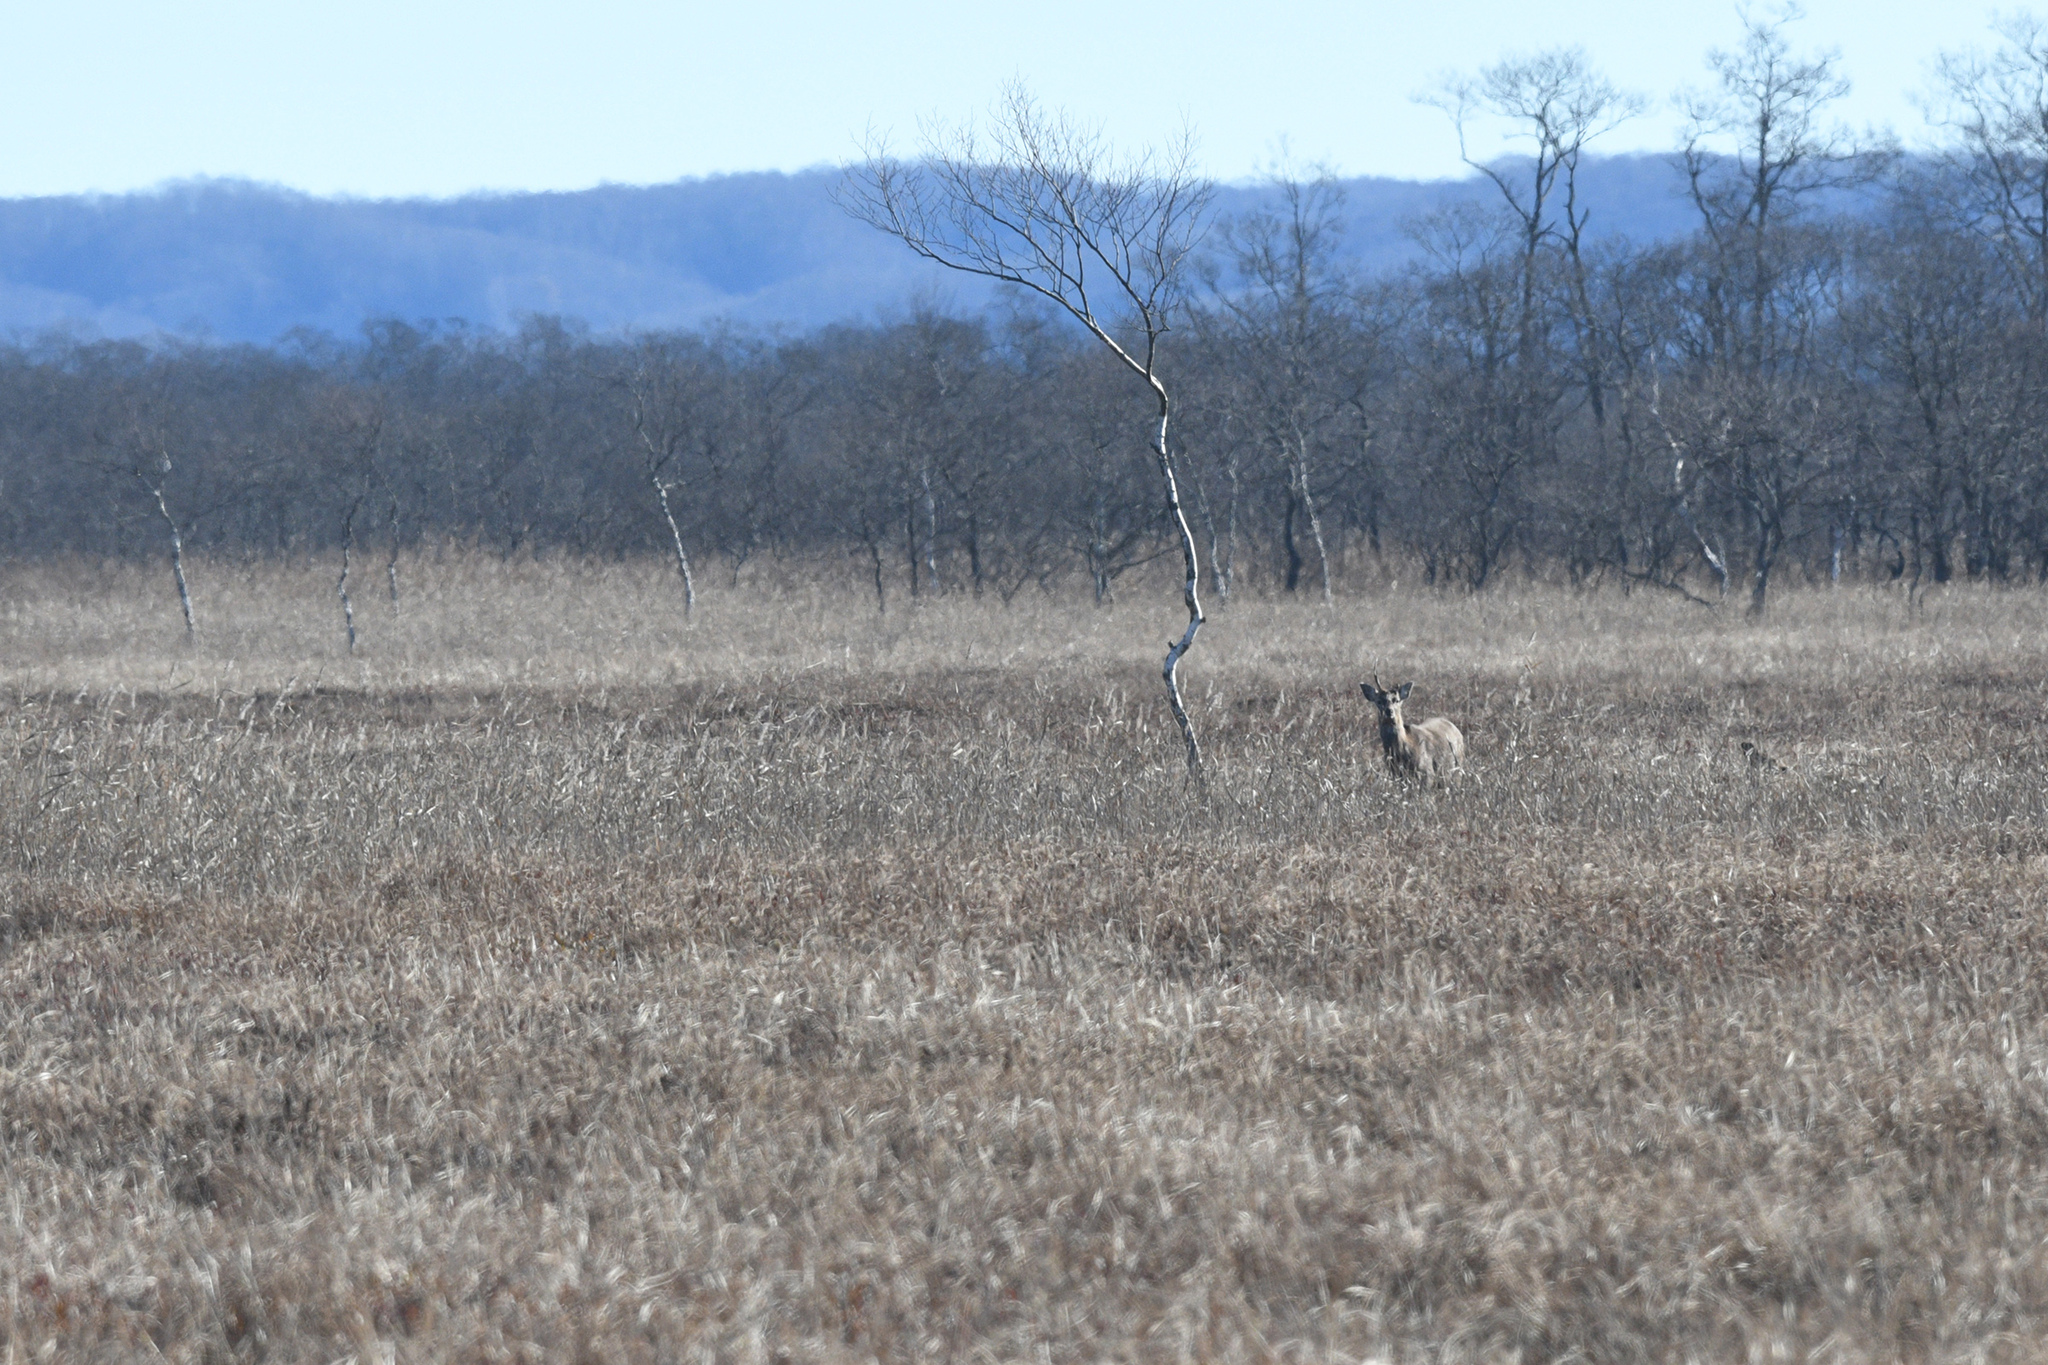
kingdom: Animalia
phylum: Chordata
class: Mammalia
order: Artiodactyla
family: Cervidae
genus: Cervus
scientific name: Cervus nippon
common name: Sika deer
